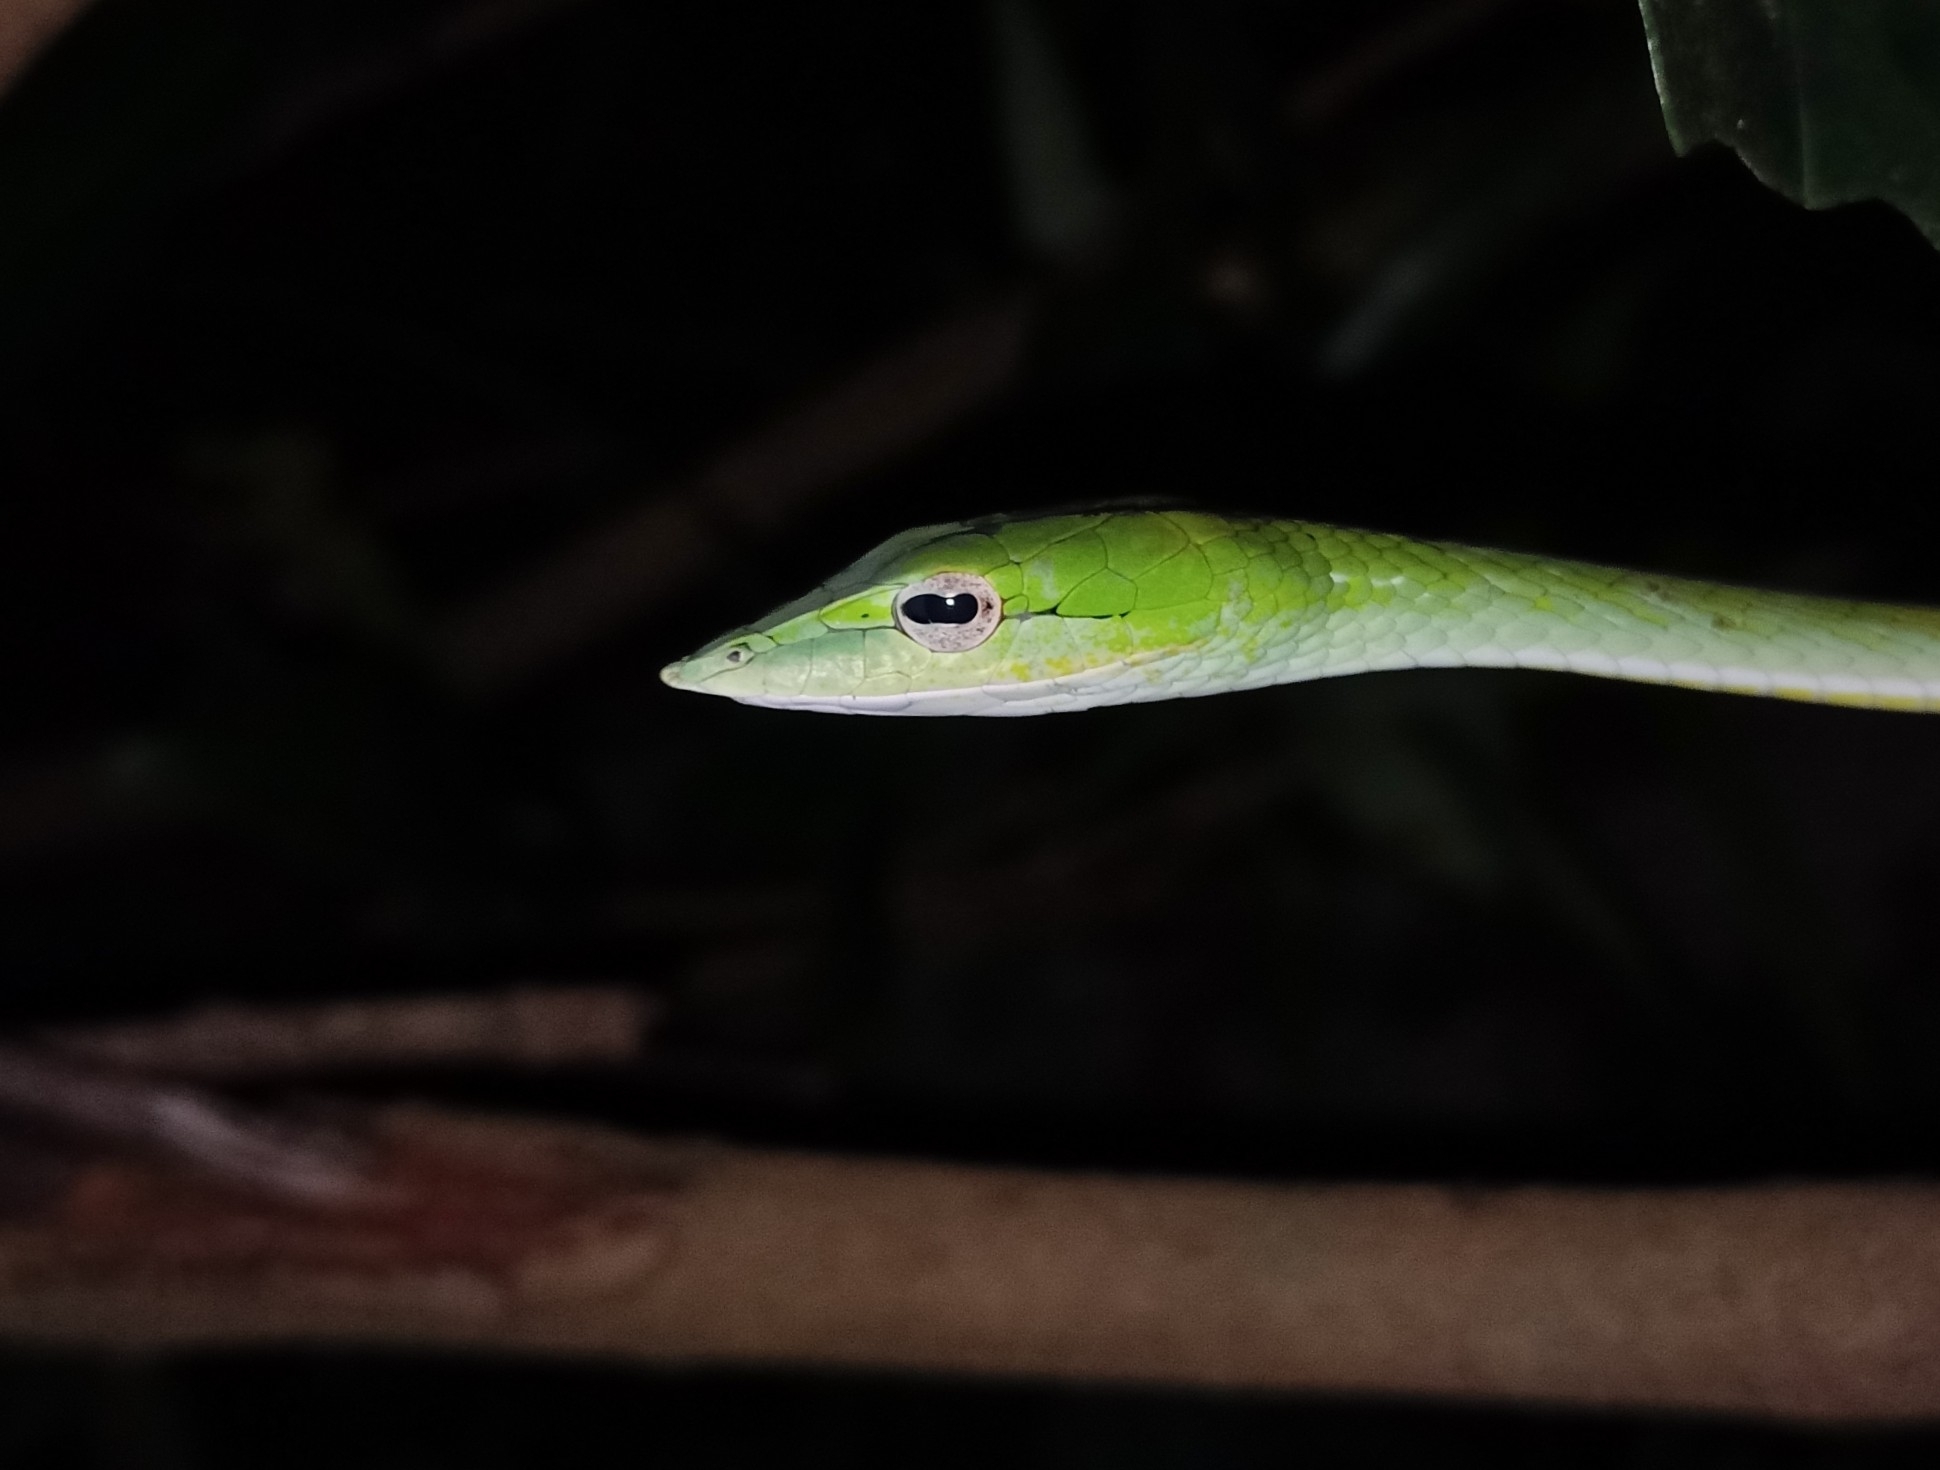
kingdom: Animalia
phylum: Chordata
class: Squamata
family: Colubridae
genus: Ahaetulla
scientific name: Ahaetulla farnsworthi
